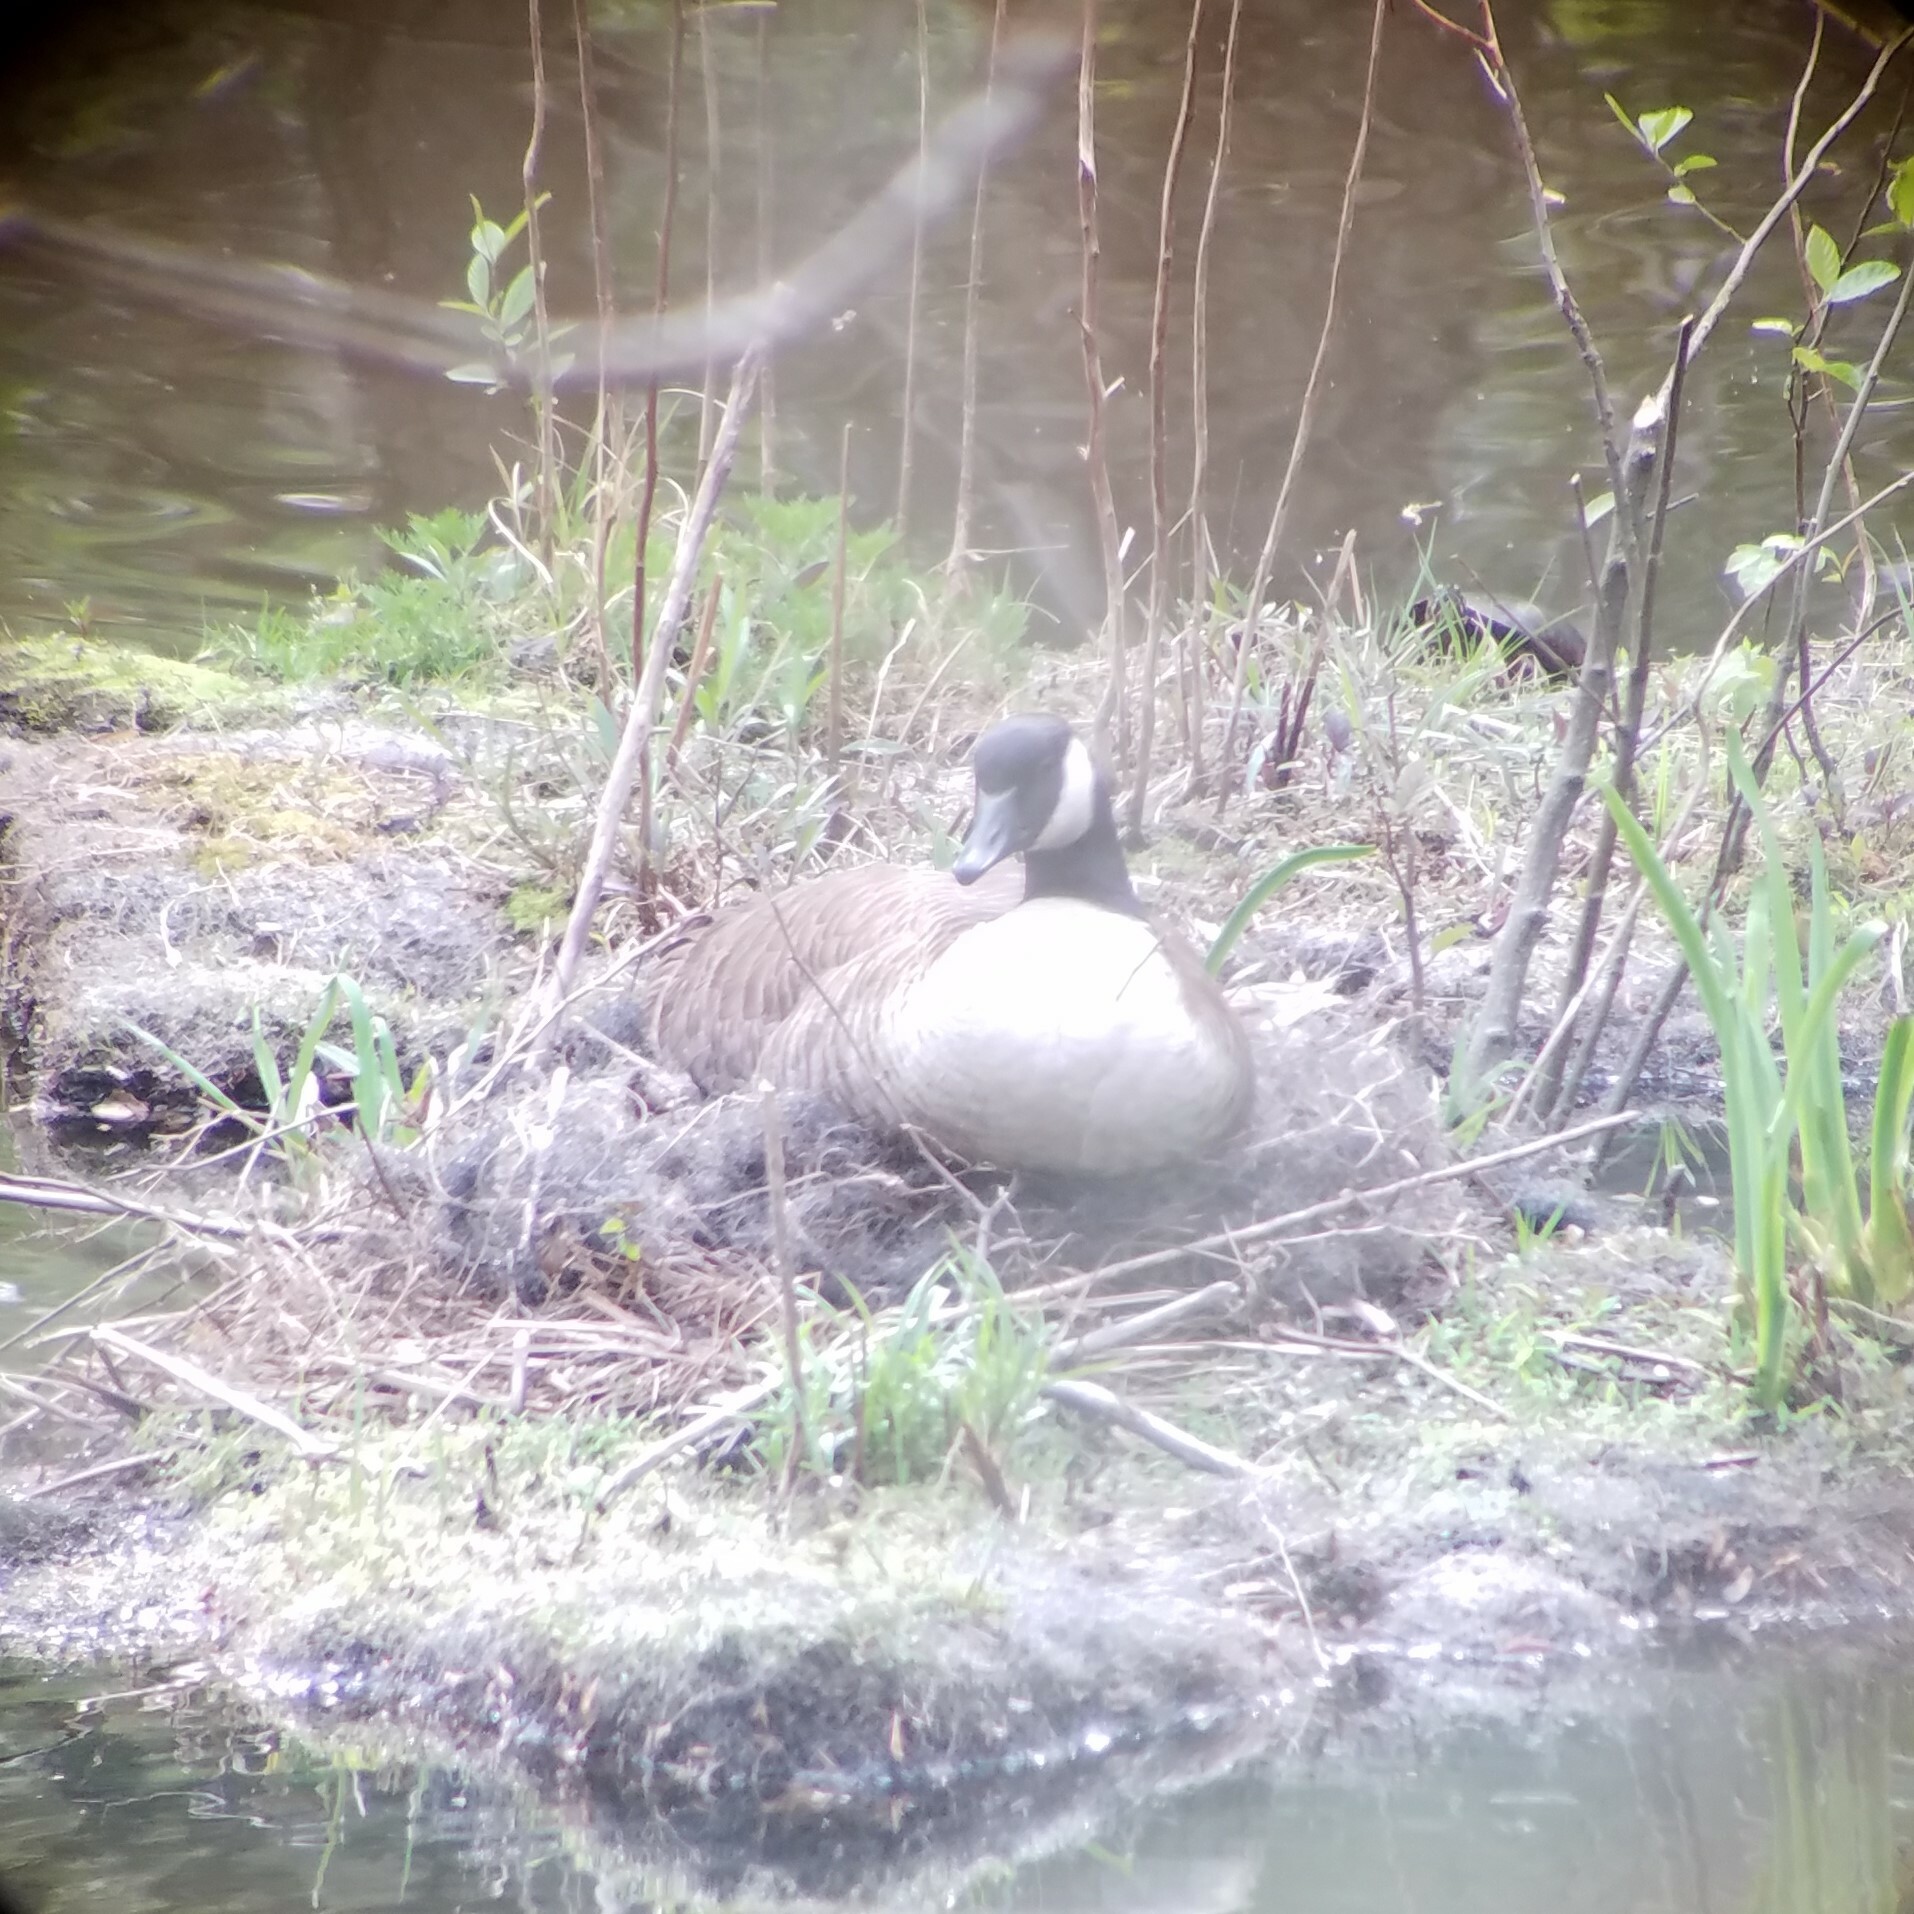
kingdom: Animalia
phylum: Chordata
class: Aves
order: Anseriformes
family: Anatidae
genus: Branta
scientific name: Branta canadensis
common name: Canada goose
